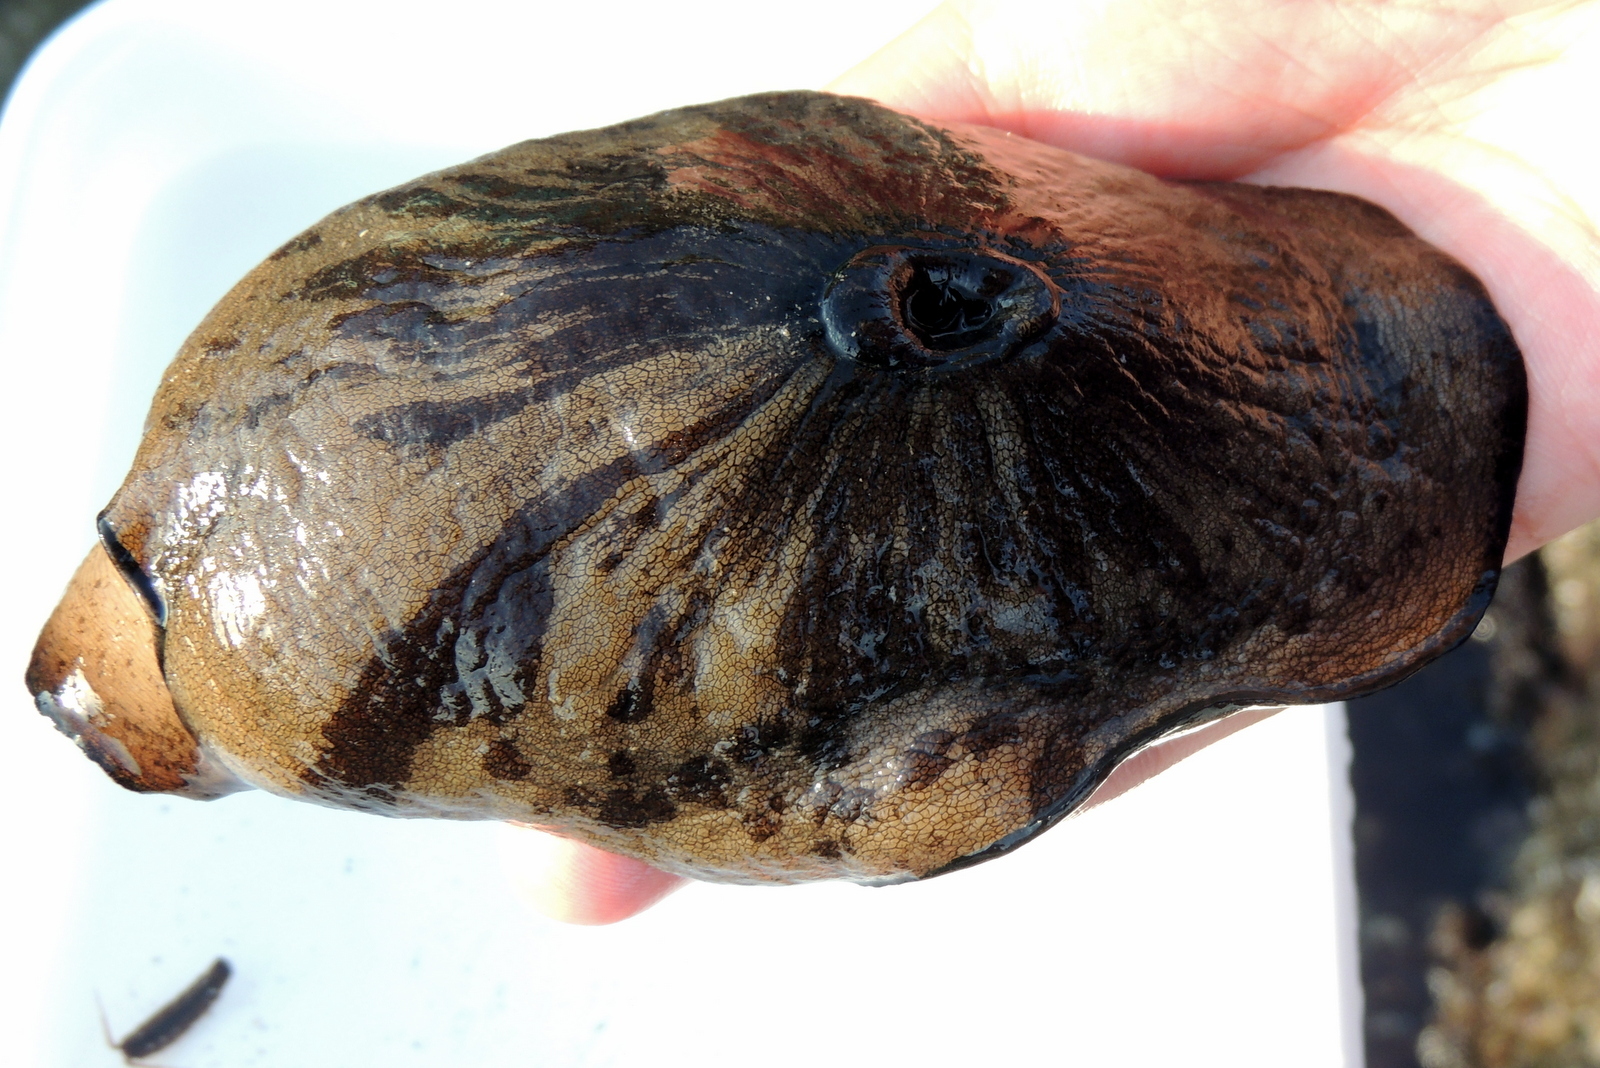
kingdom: Animalia
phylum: Mollusca
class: Gastropoda
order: Lepetellida
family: Fissurellidae
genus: Megathura
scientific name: Megathura crenulata
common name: Giant keyhole limpet
